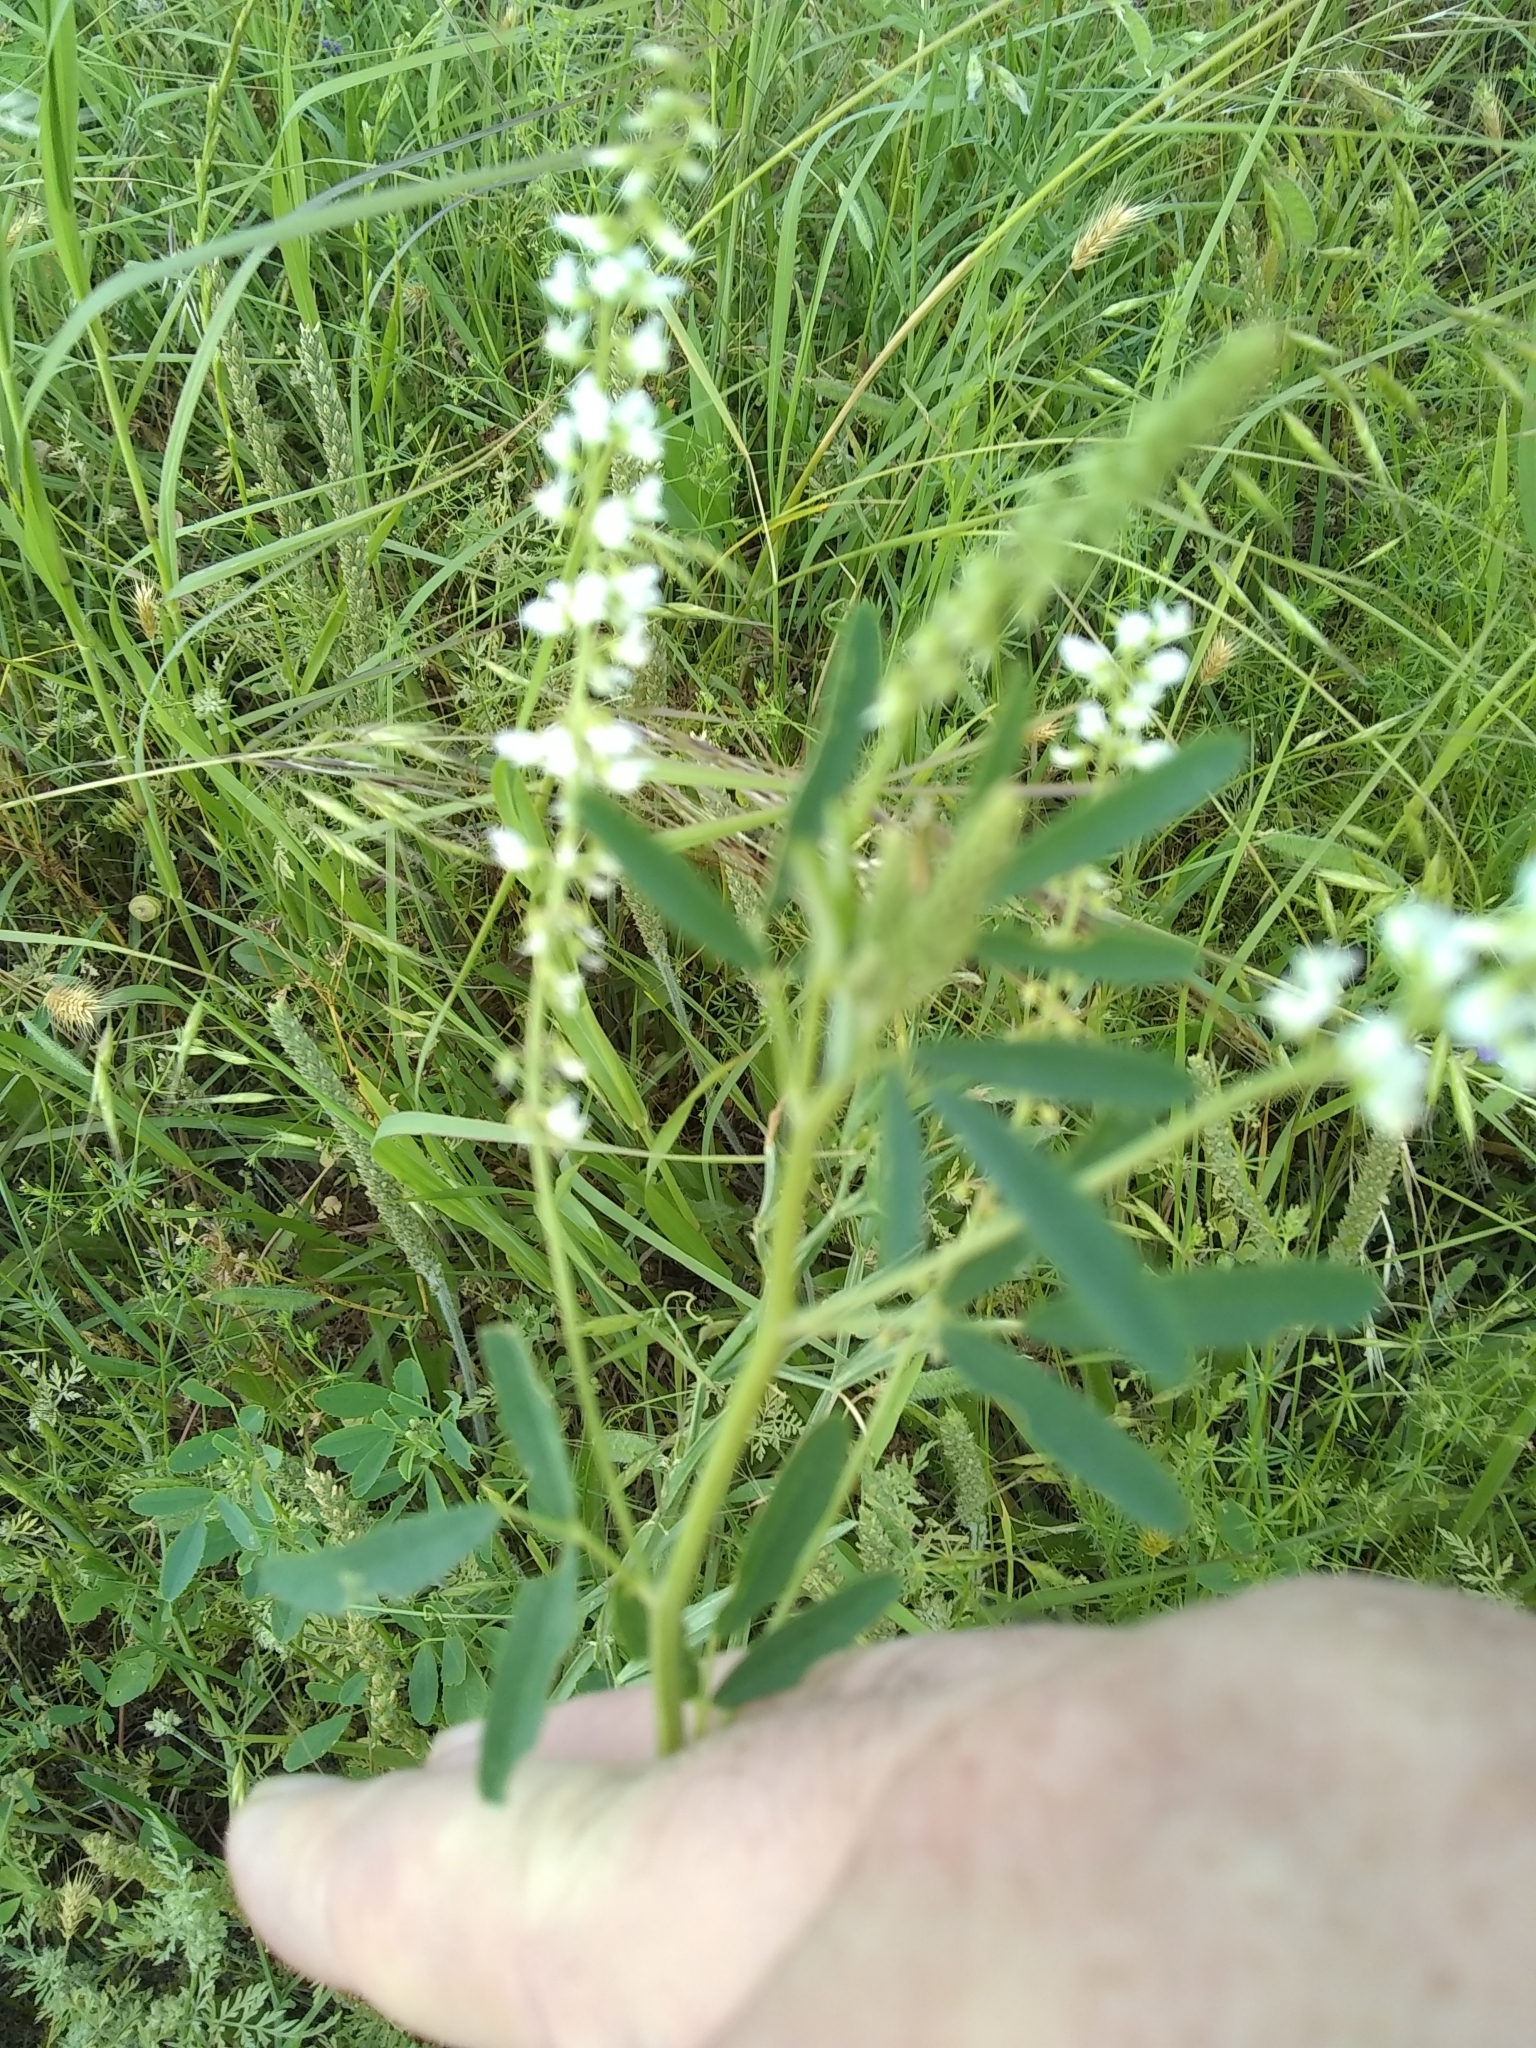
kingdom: Plantae
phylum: Tracheophyta
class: Magnoliopsida
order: Fabales
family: Fabaceae
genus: Melilotus
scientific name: Melilotus albus
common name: White melilot
